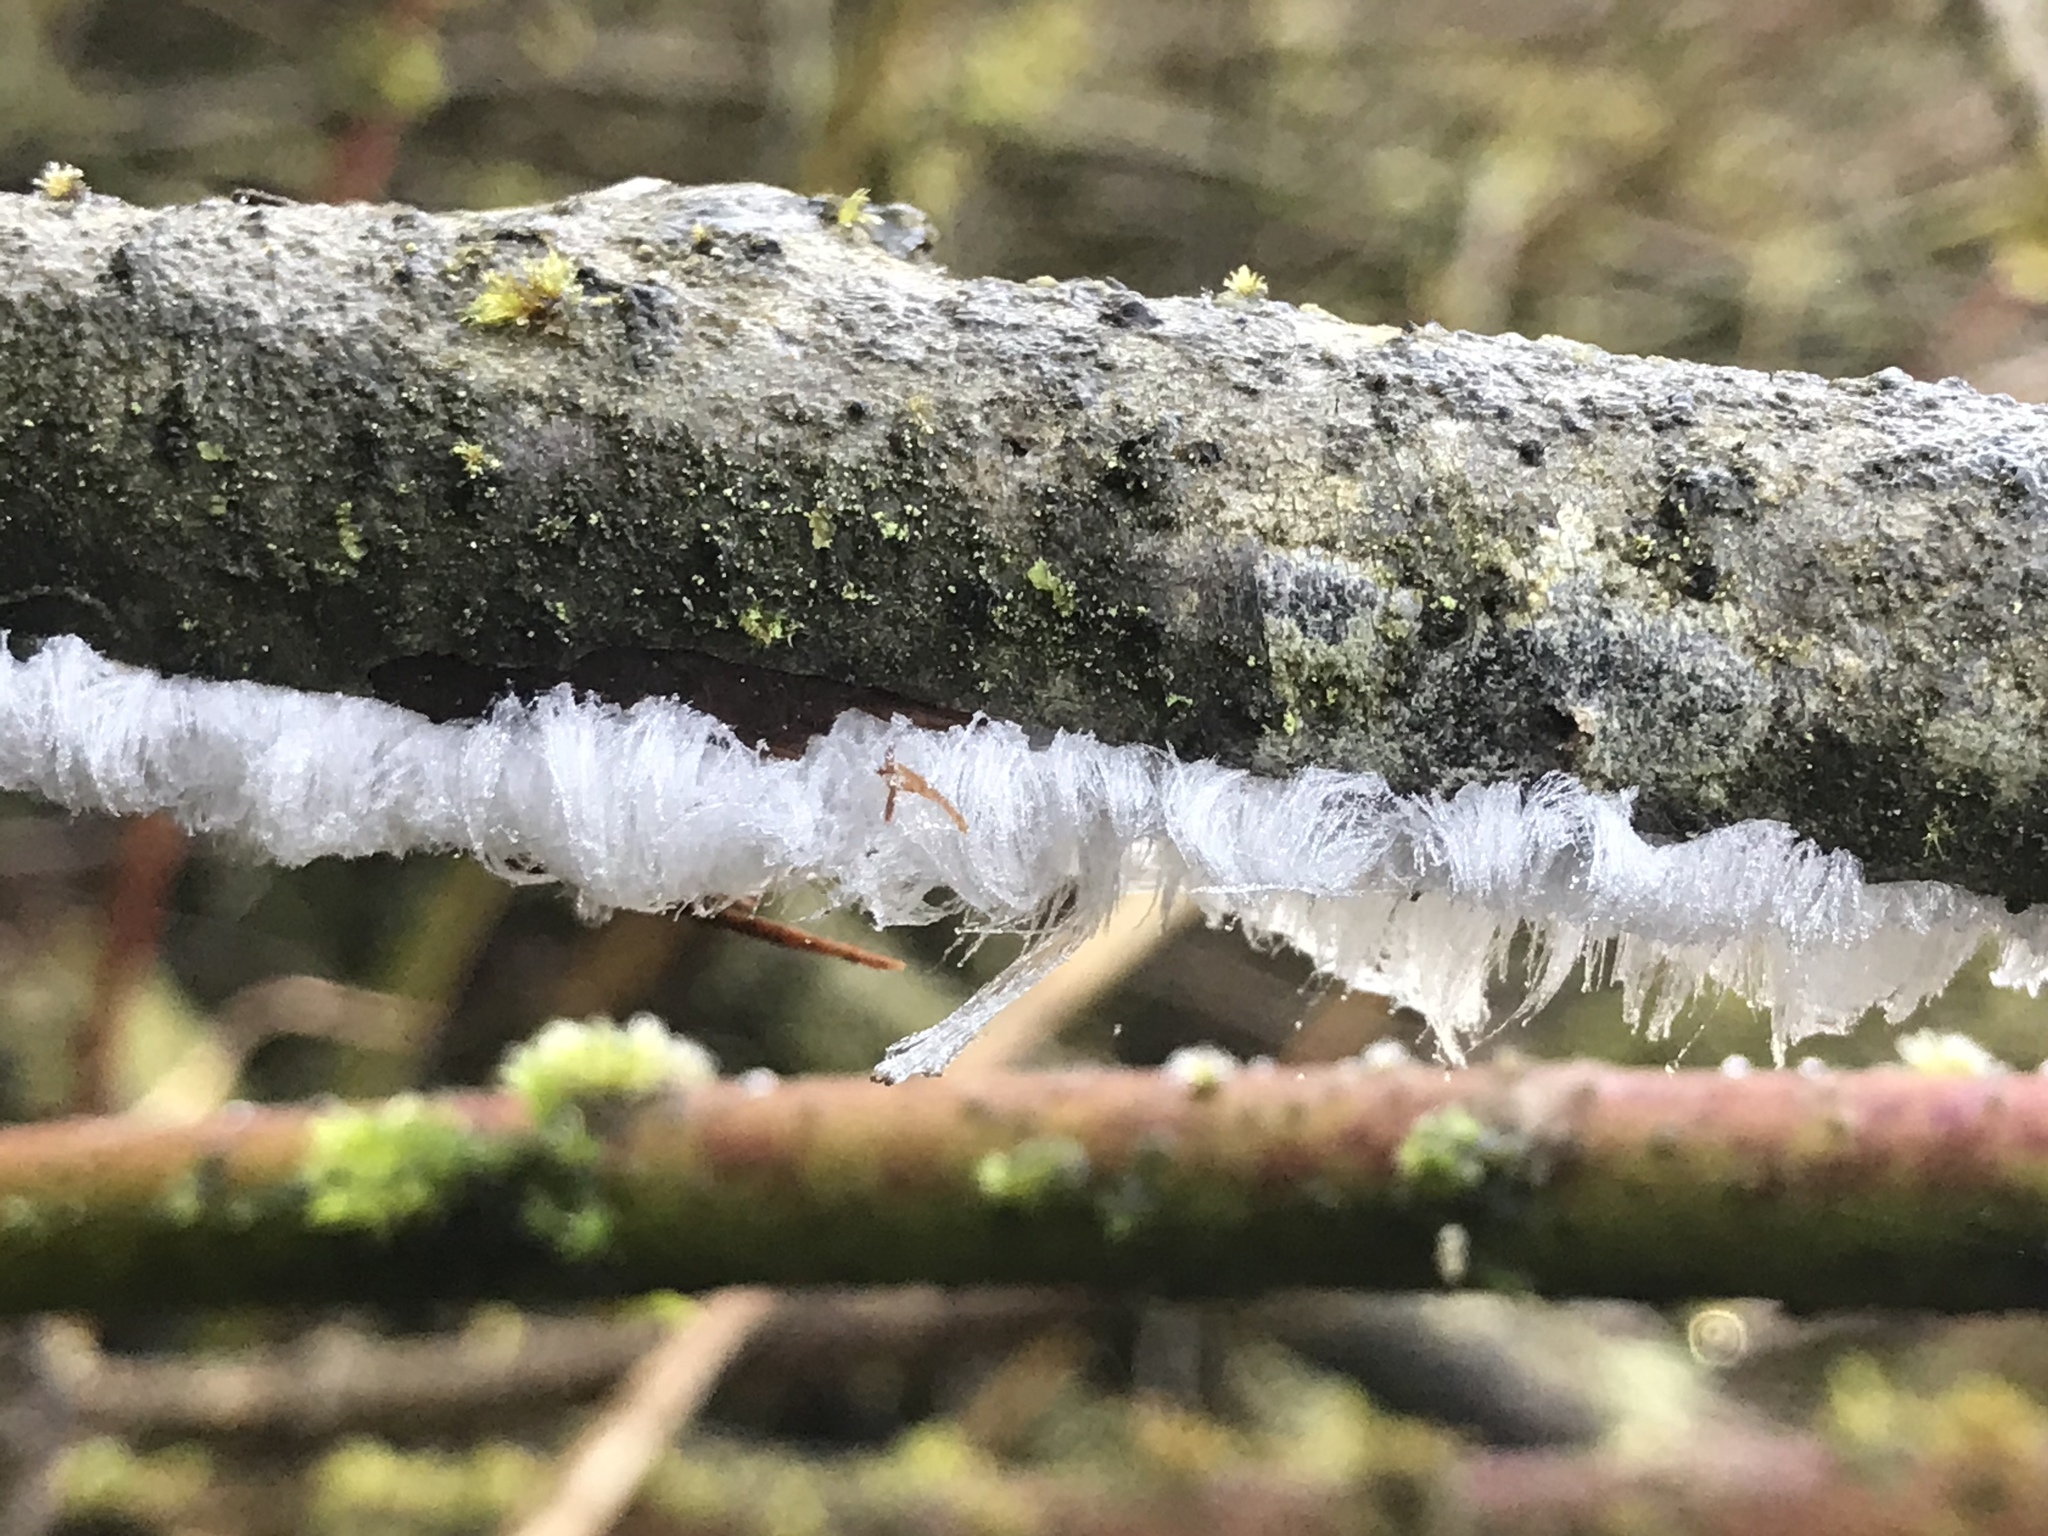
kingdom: Fungi
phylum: Basidiomycota
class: Agaricomycetes
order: Auriculariales
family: Auriculariaceae
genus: Exidiopsis
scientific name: Exidiopsis effusa
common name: Hair ice crust
